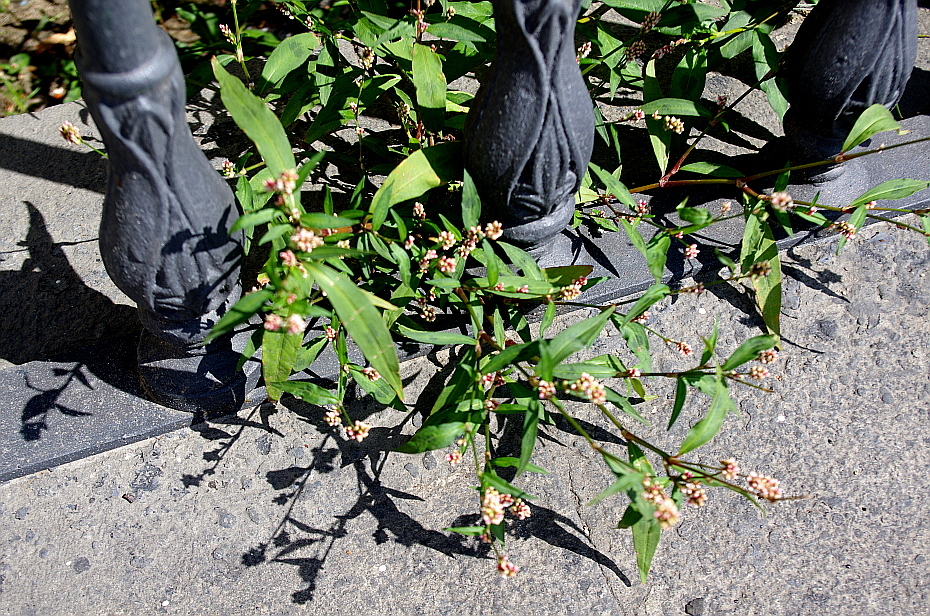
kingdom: Plantae
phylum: Tracheophyta
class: Magnoliopsida
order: Caryophyllales
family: Polygonaceae
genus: Persicaria
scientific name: Persicaria maculosa
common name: Redshank
